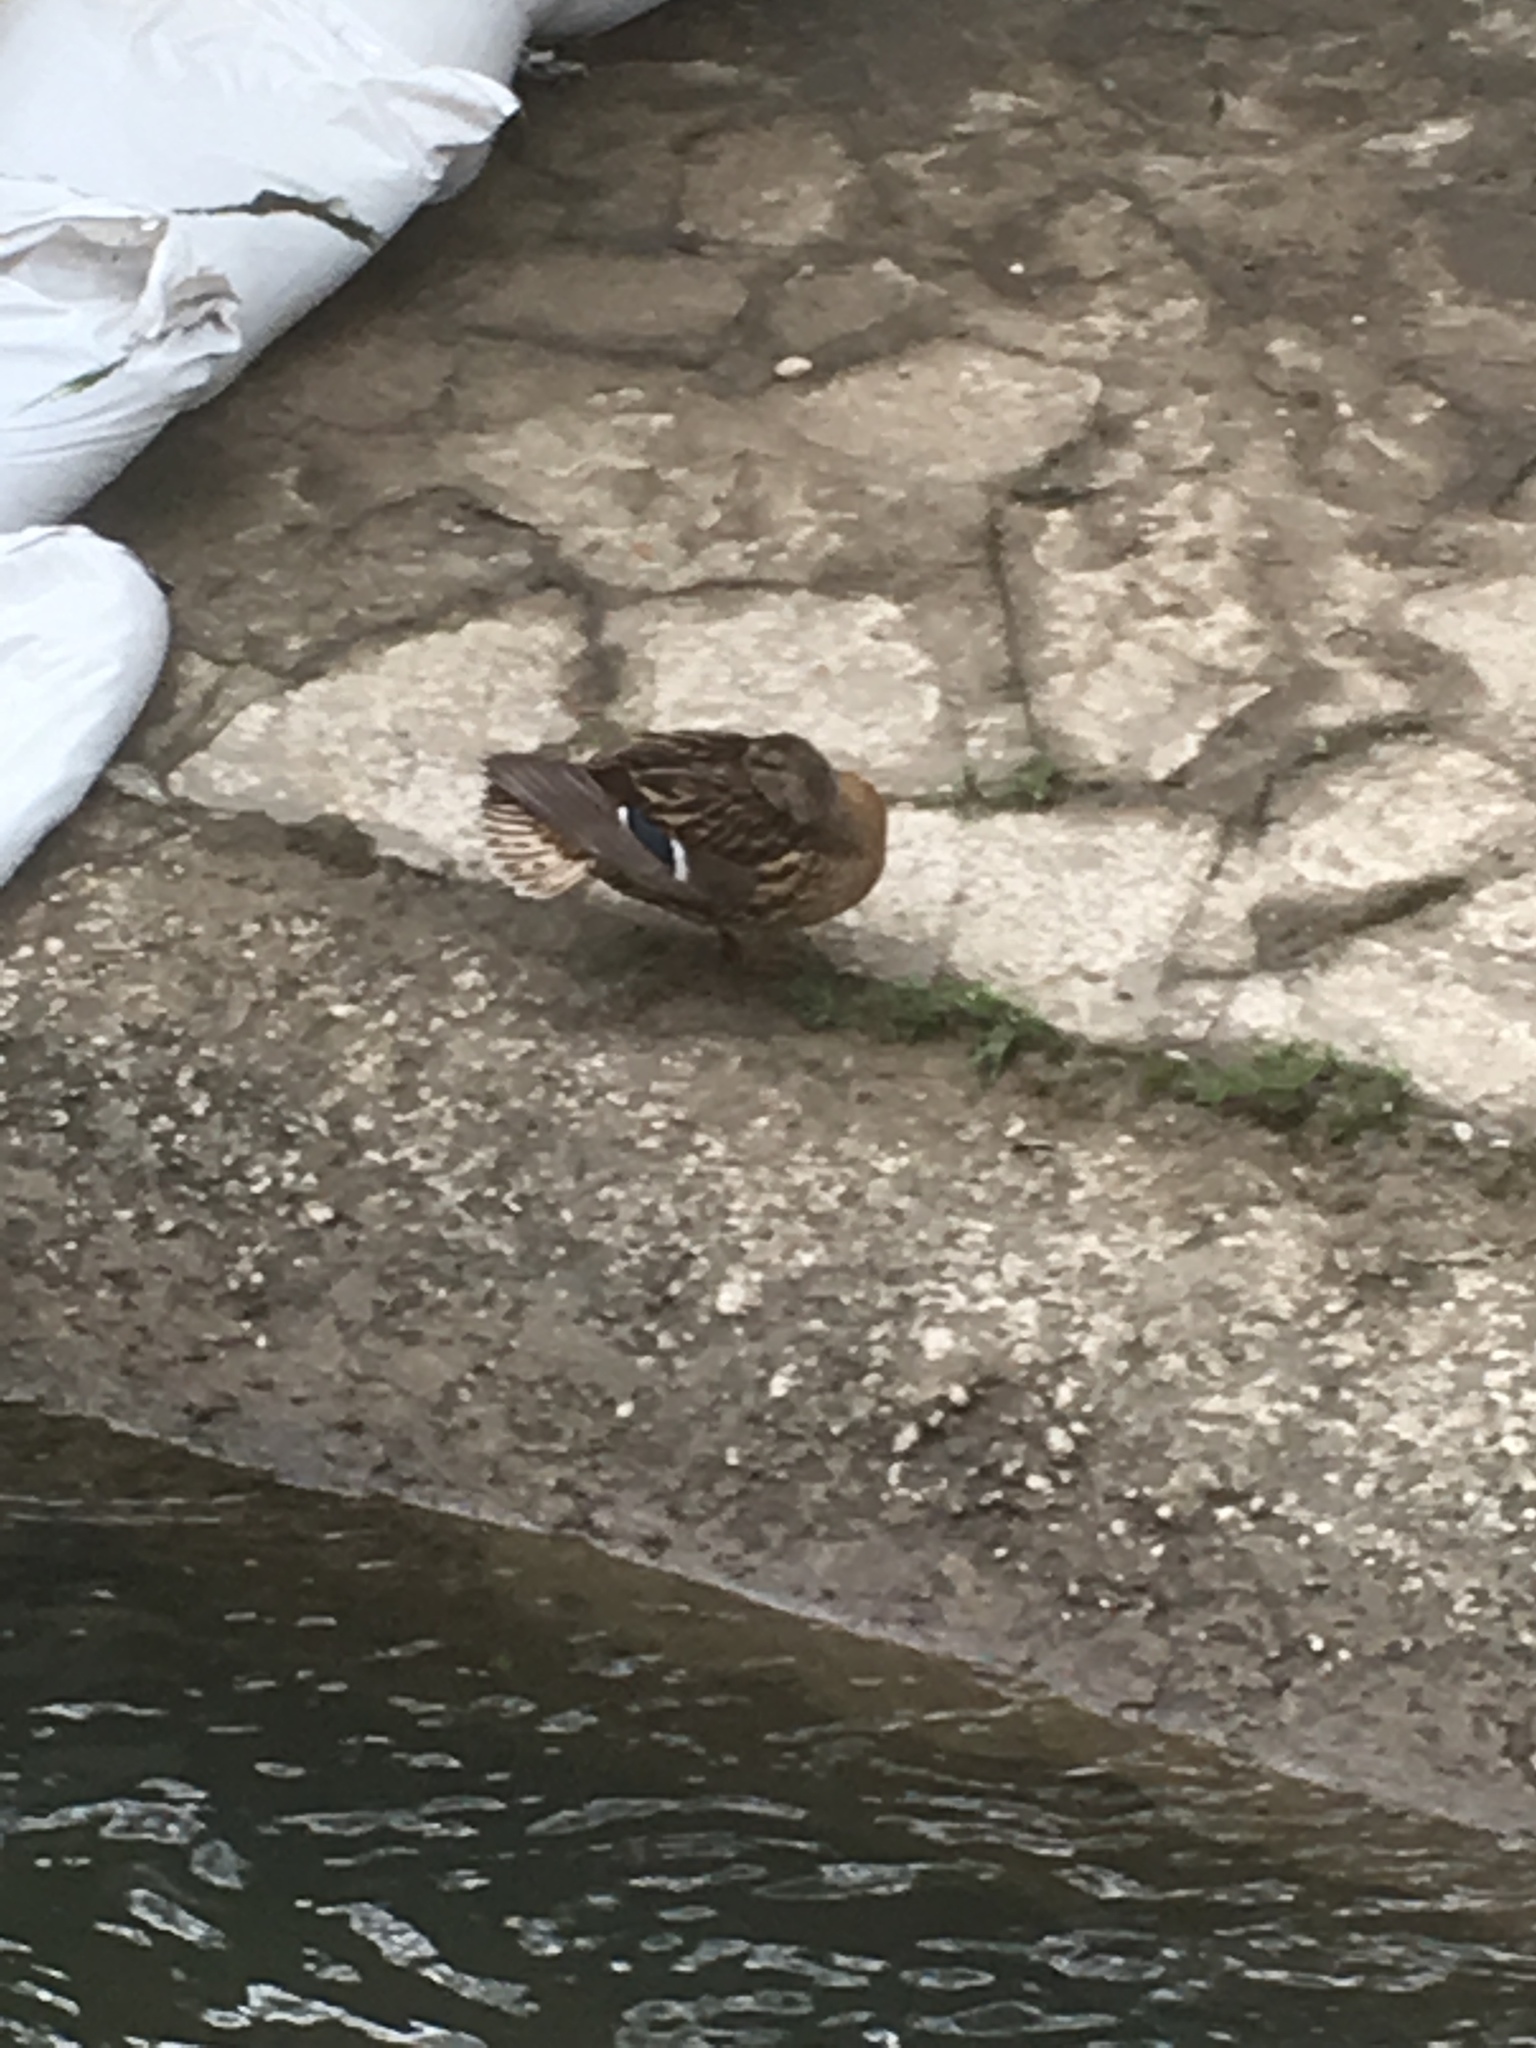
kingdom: Animalia
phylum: Chordata
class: Aves
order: Anseriformes
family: Anatidae
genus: Anas
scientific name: Anas platyrhynchos
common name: Mallard
